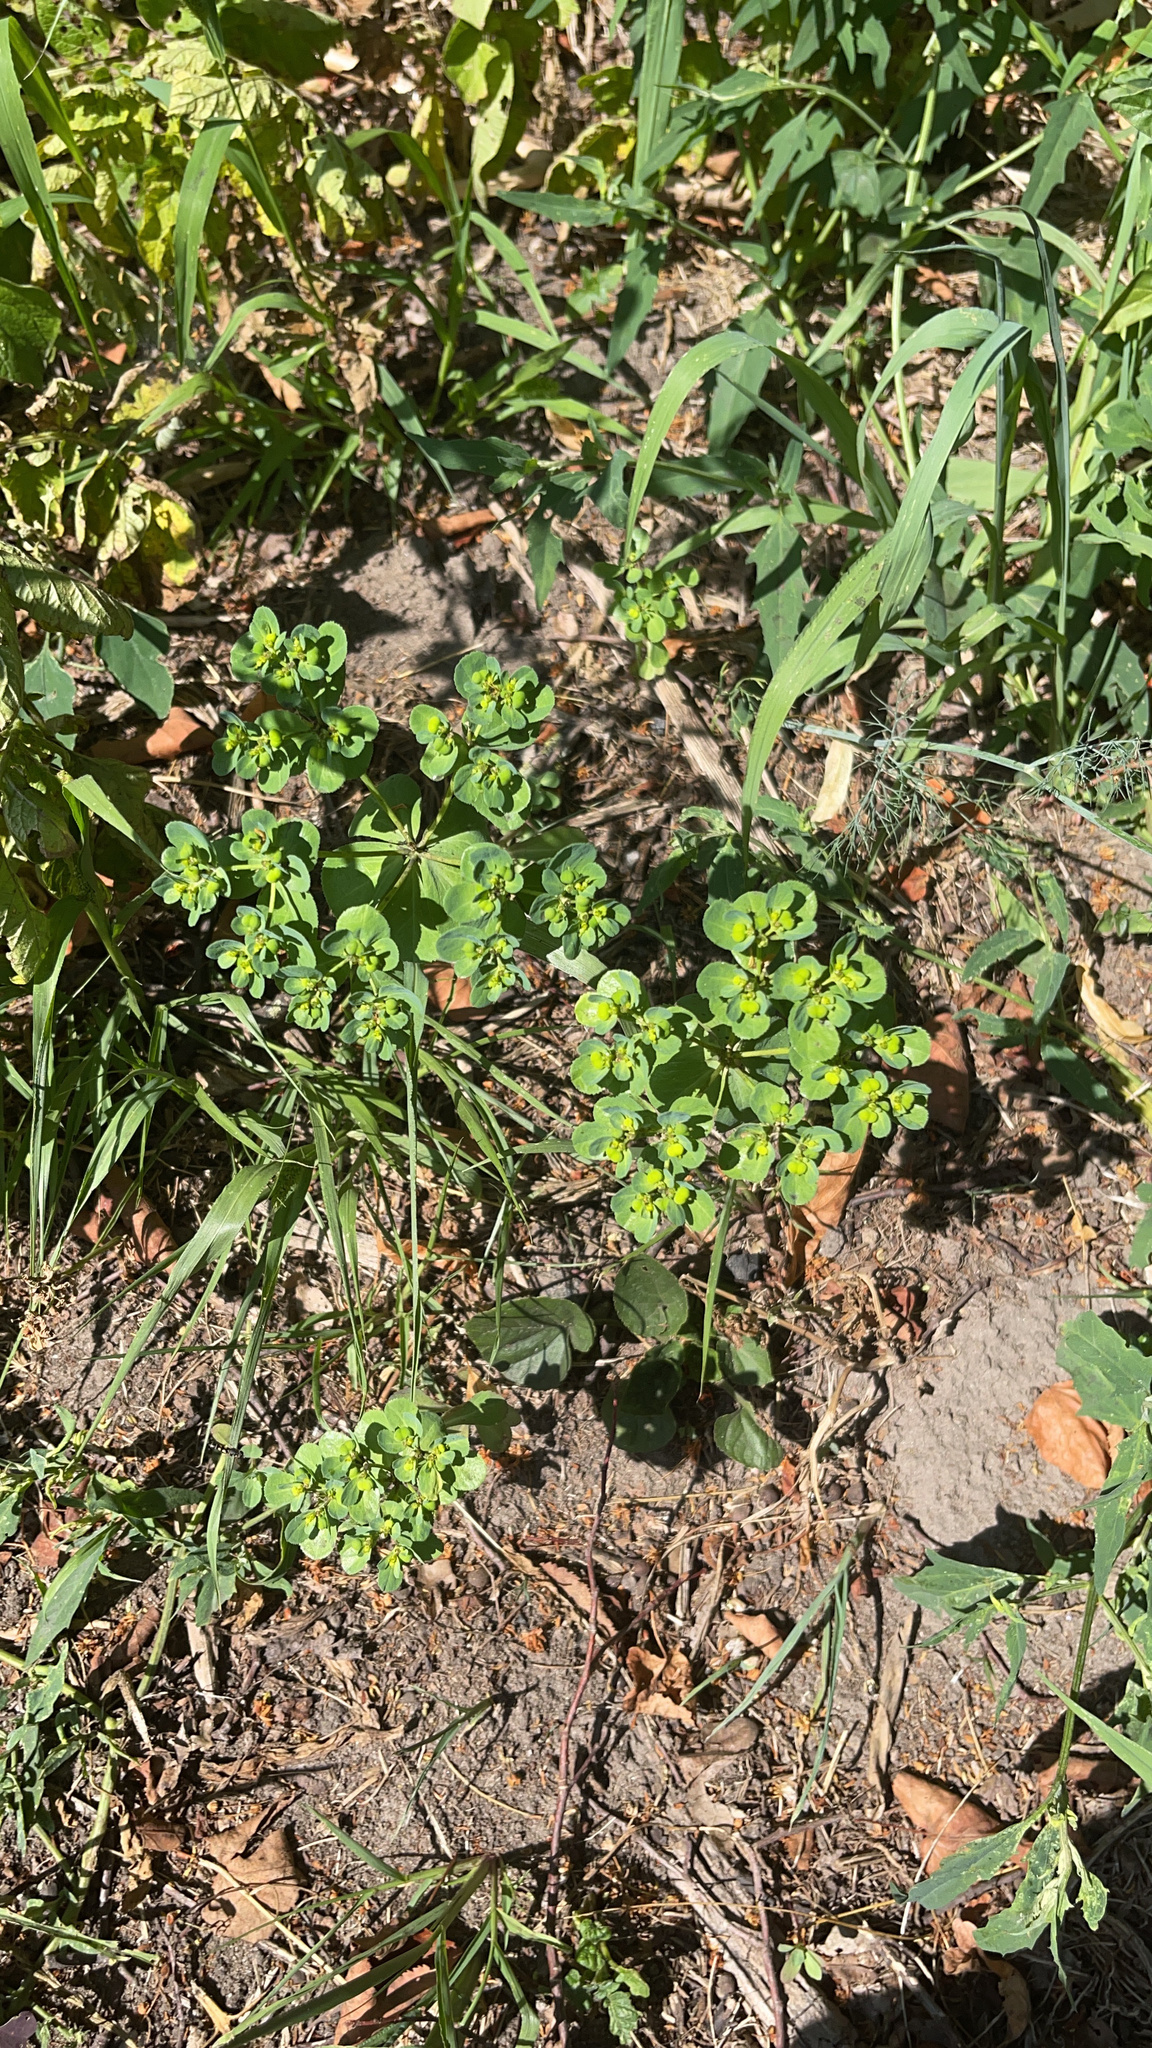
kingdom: Plantae
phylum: Tracheophyta
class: Magnoliopsida
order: Malpighiales
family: Euphorbiaceae
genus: Euphorbia
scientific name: Euphorbia helioscopia
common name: Sun spurge
